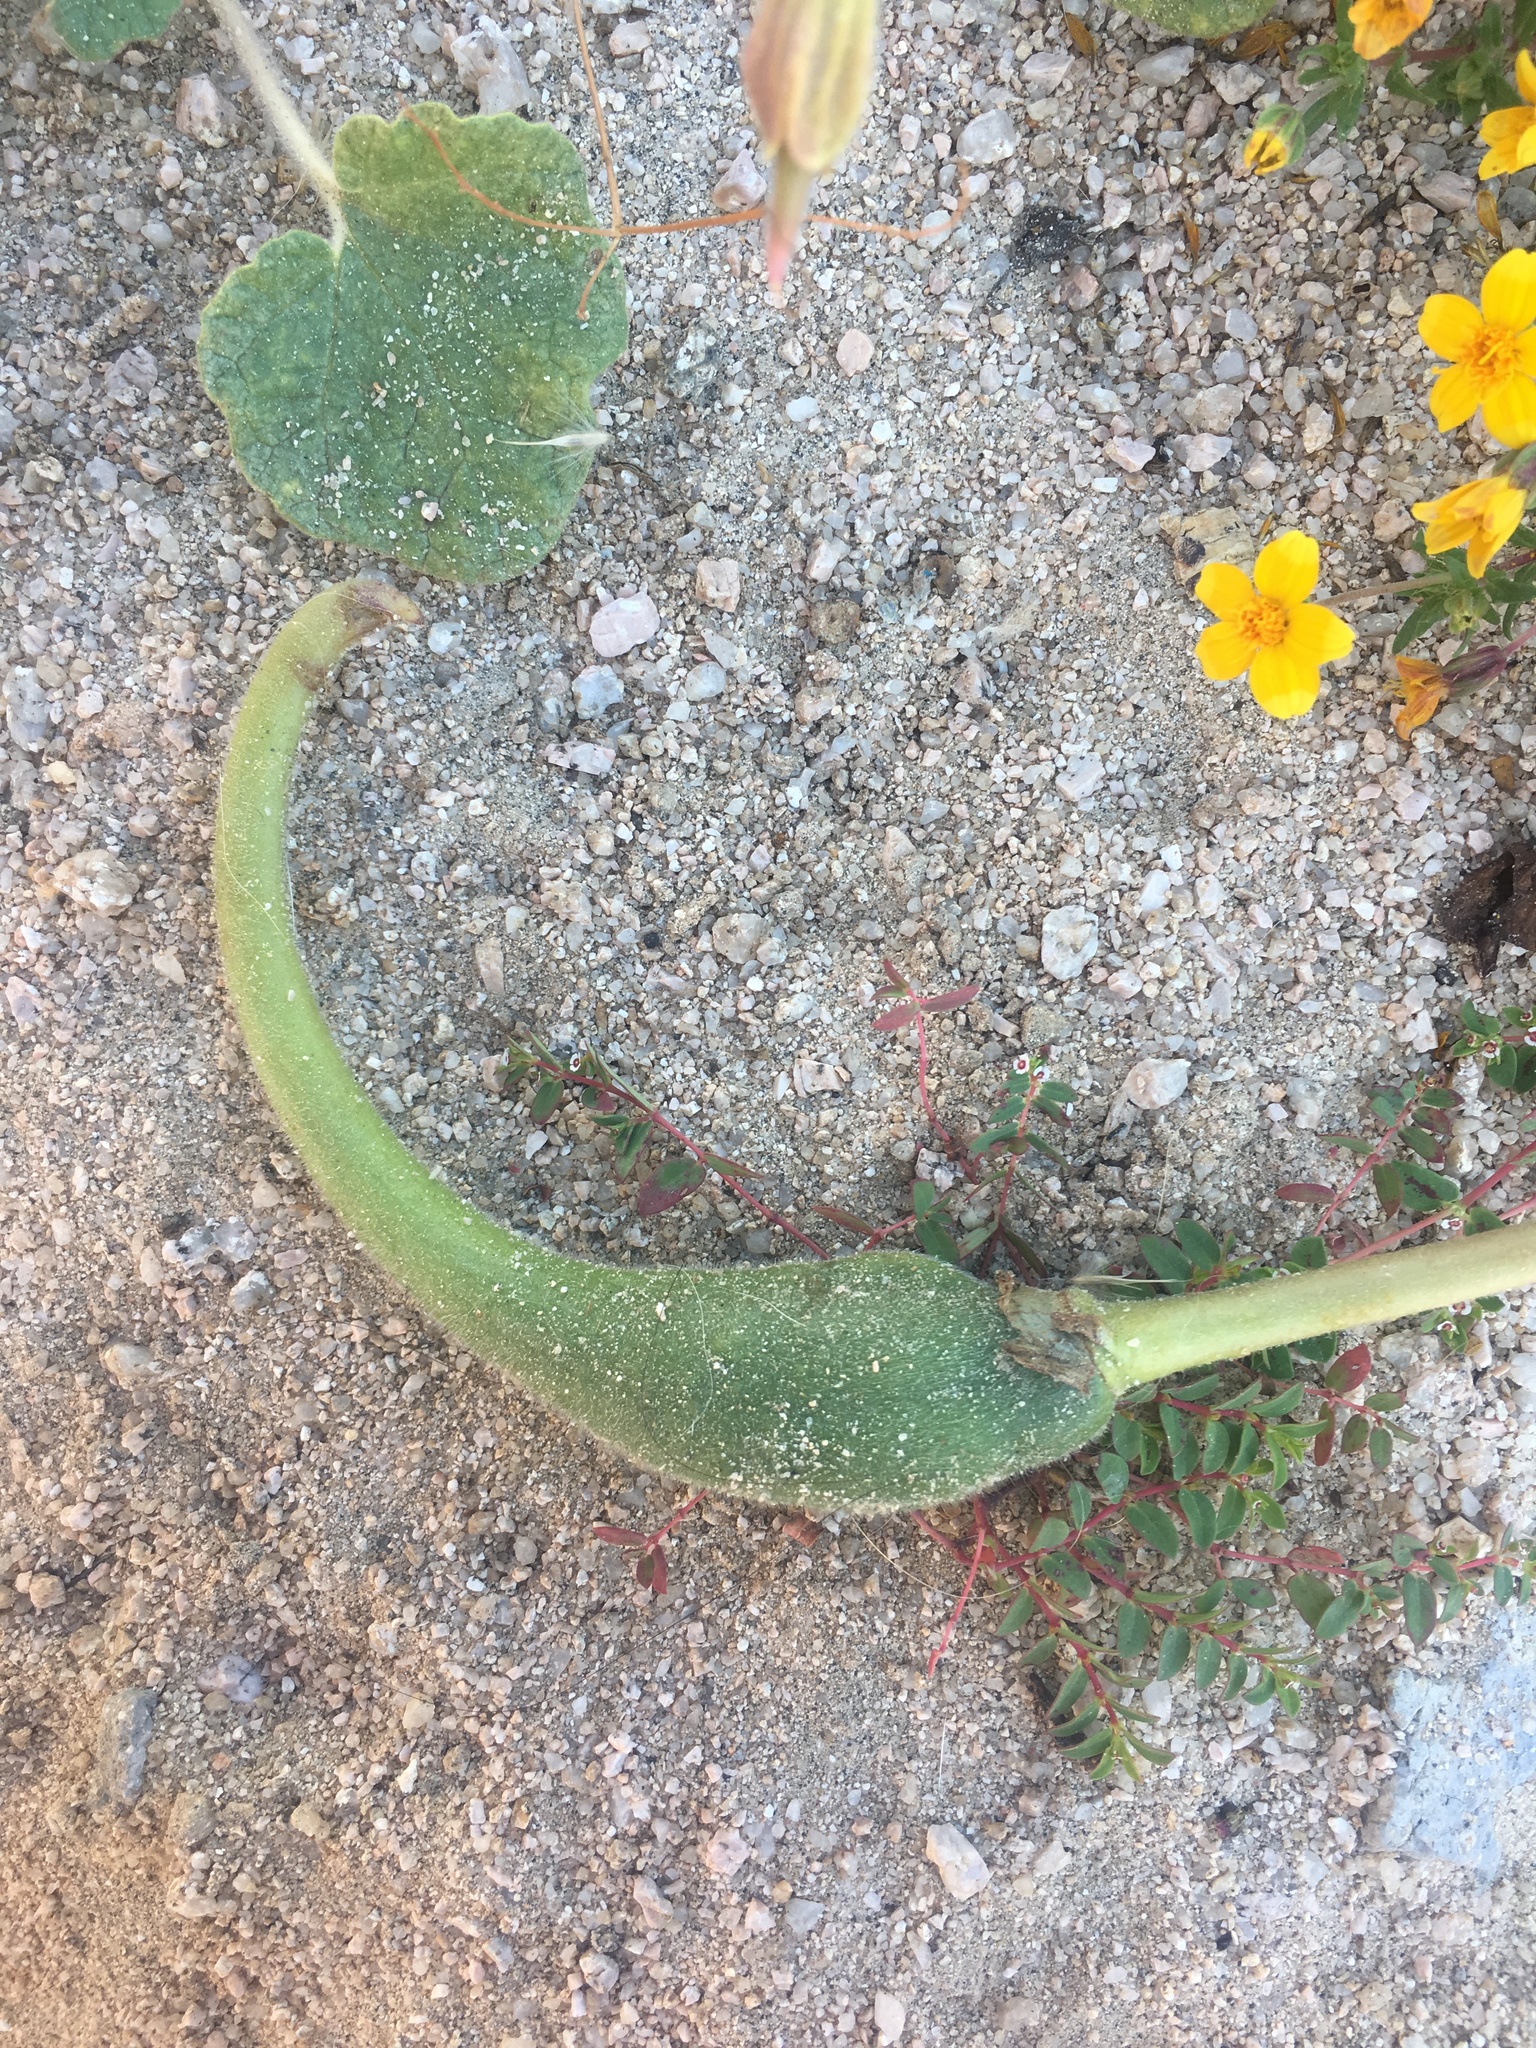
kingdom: Plantae
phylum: Tracheophyta
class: Magnoliopsida
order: Lamiales
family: Martyniaceae
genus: Proboscidea
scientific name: Proboscidea althaeifolia
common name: Desert unicorn-plant
